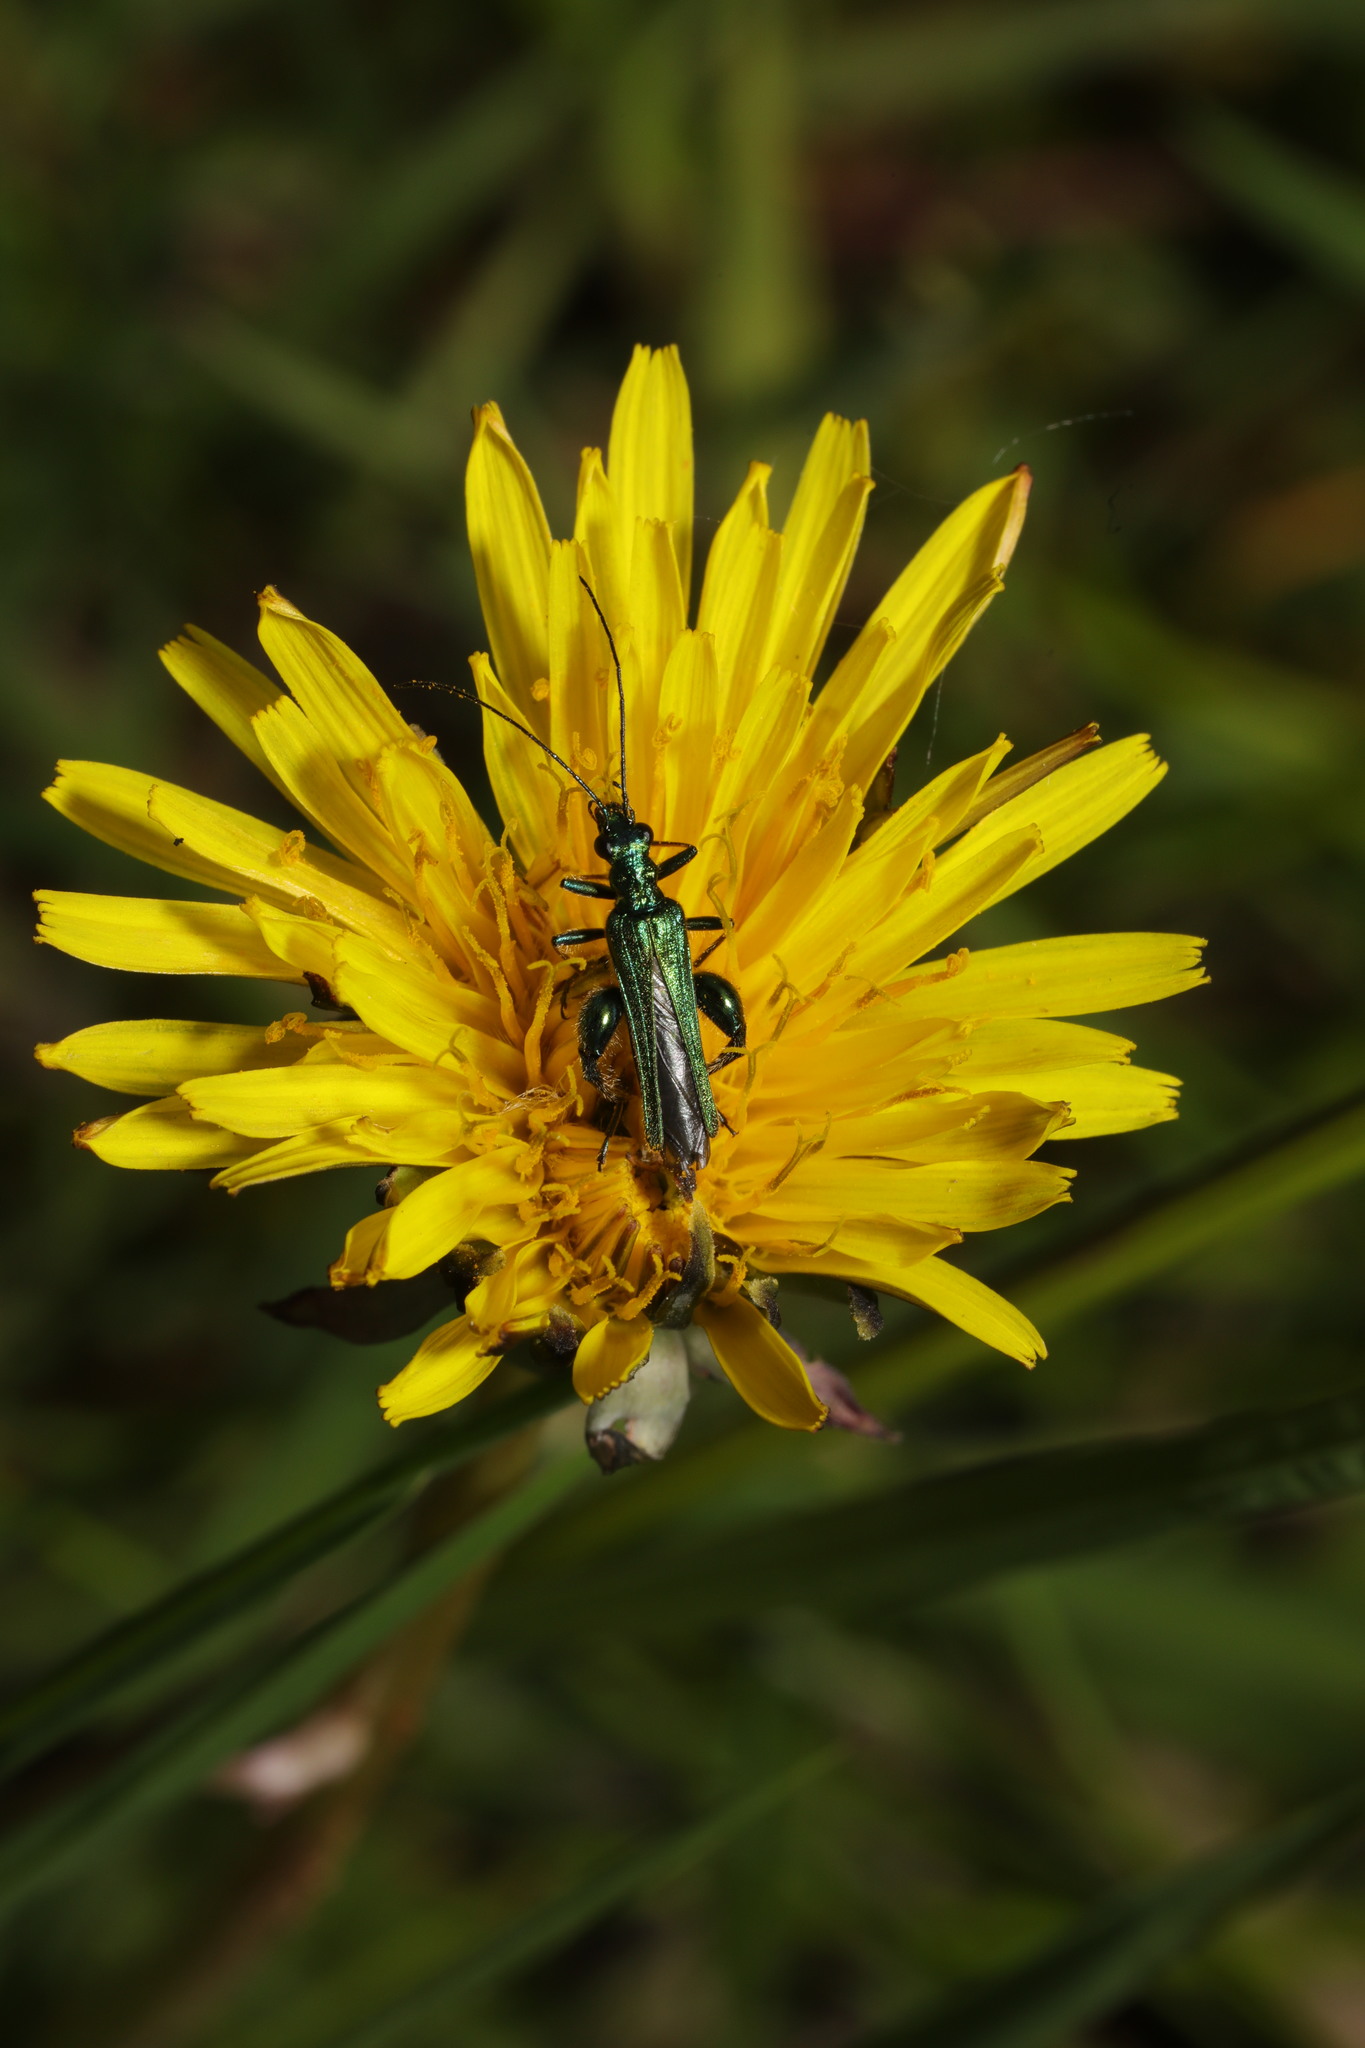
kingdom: Animalia
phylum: Arthropoda
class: Insecta
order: Coleoptera
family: Oedemeridae
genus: Oedemera
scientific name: Oedemera nobilis
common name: Swollen-thighed beetle
